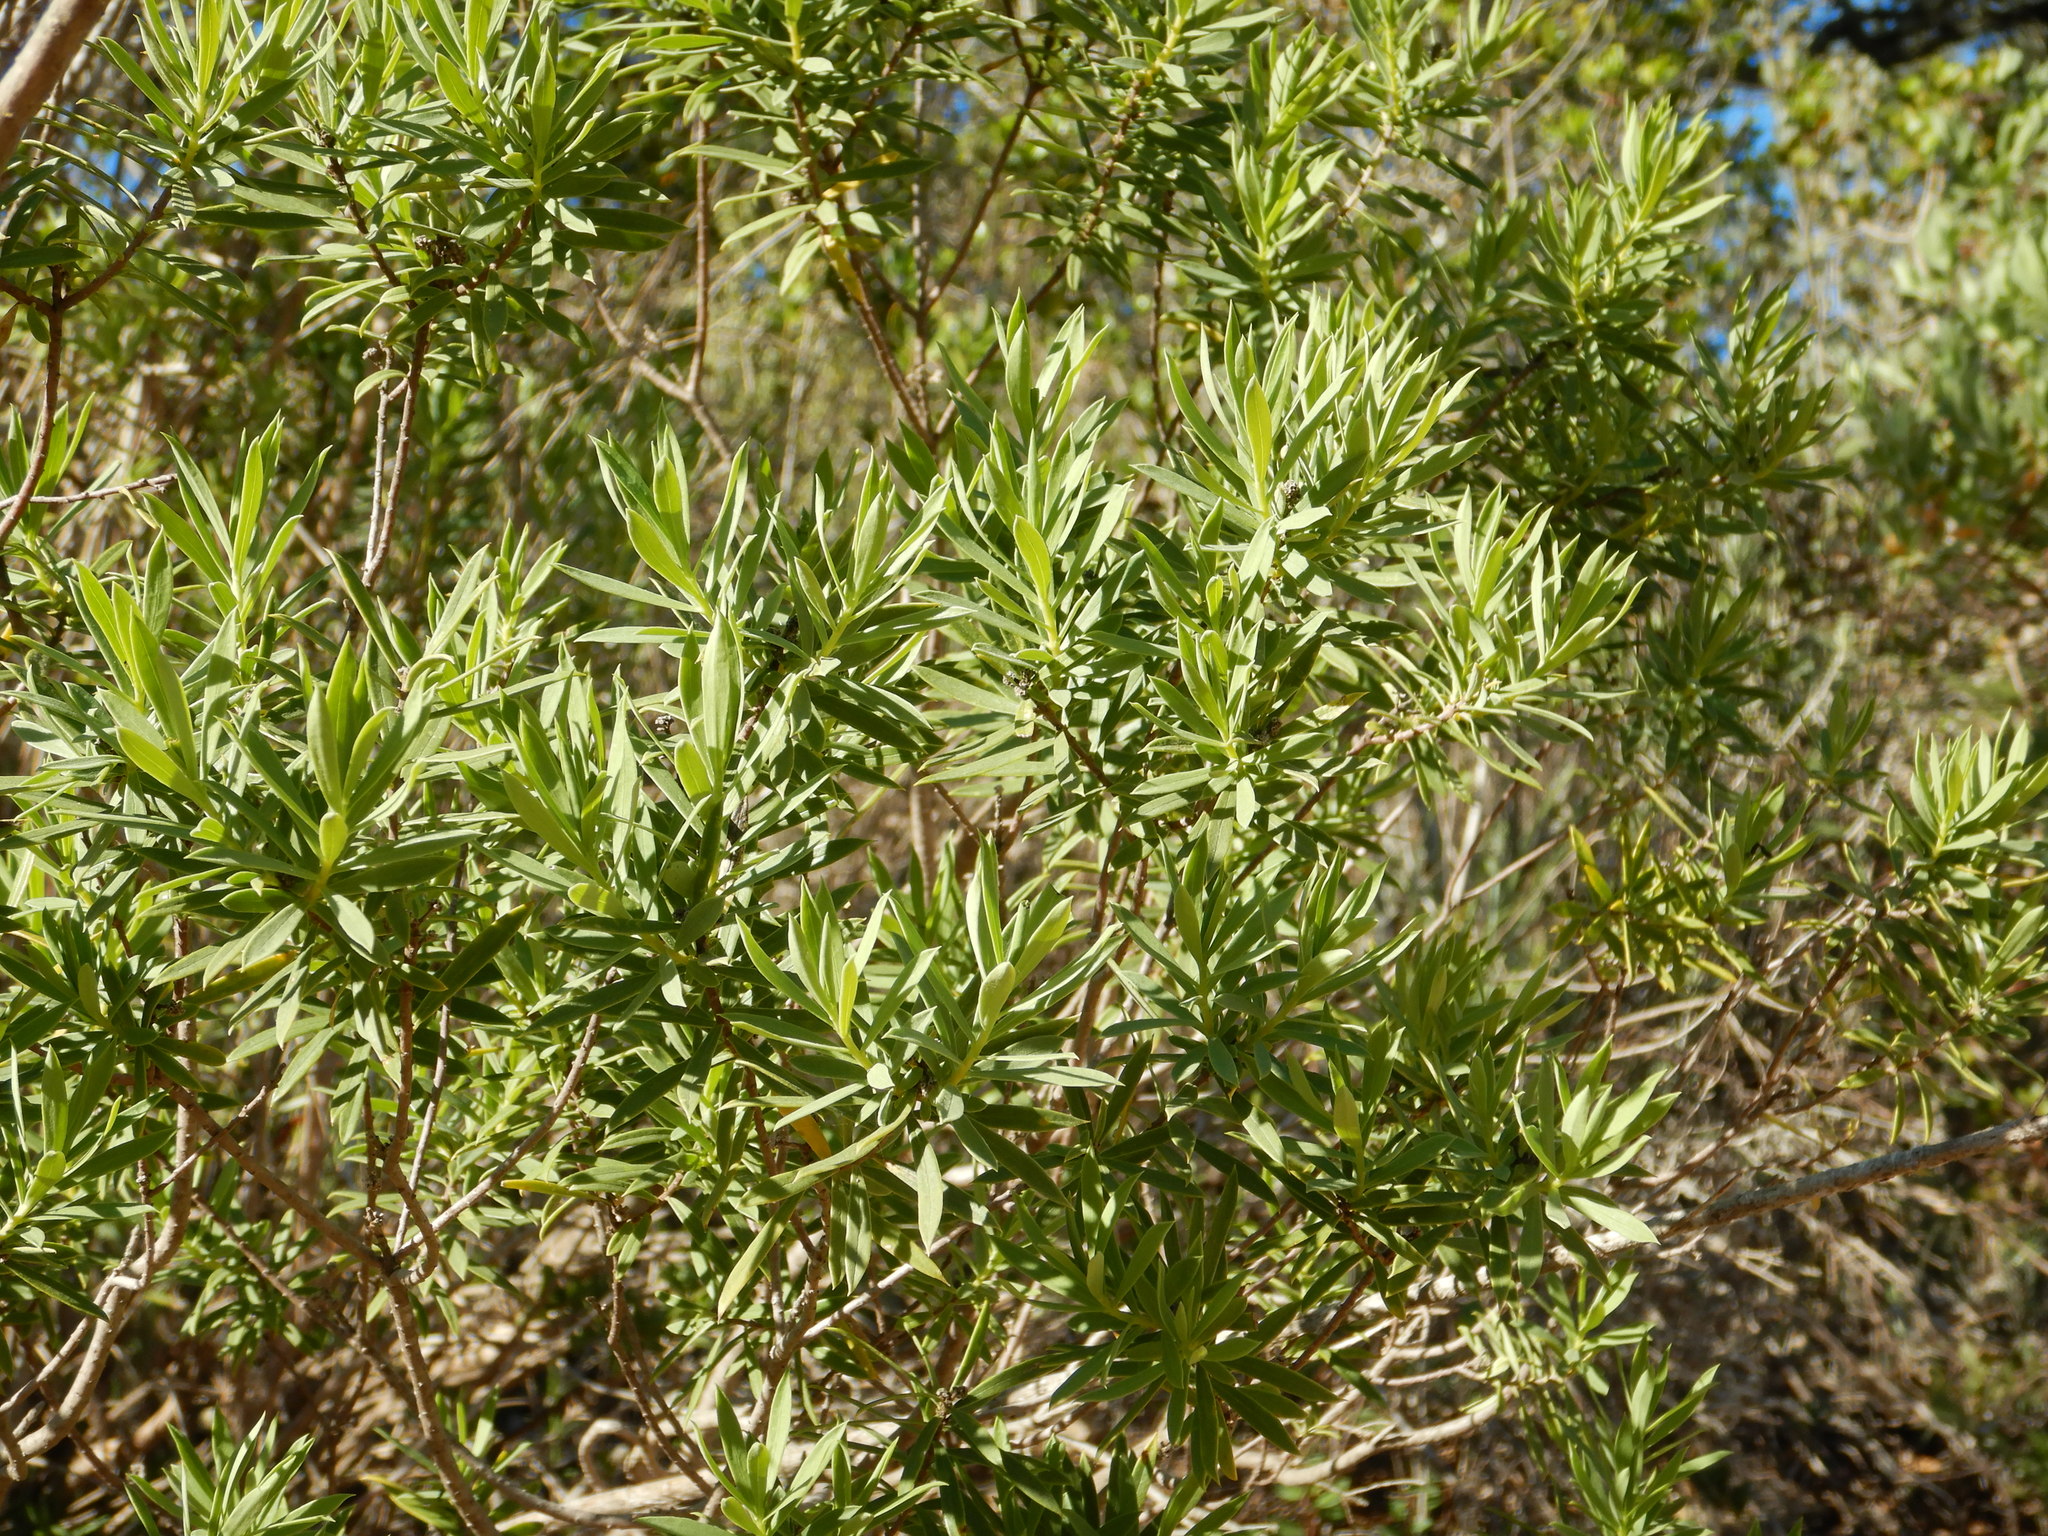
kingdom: Plantae
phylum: Tracheophyta
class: Magnoliopsida
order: Malvales
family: Thymelaeaceae
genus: Daphne
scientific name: Daphne gnidium
